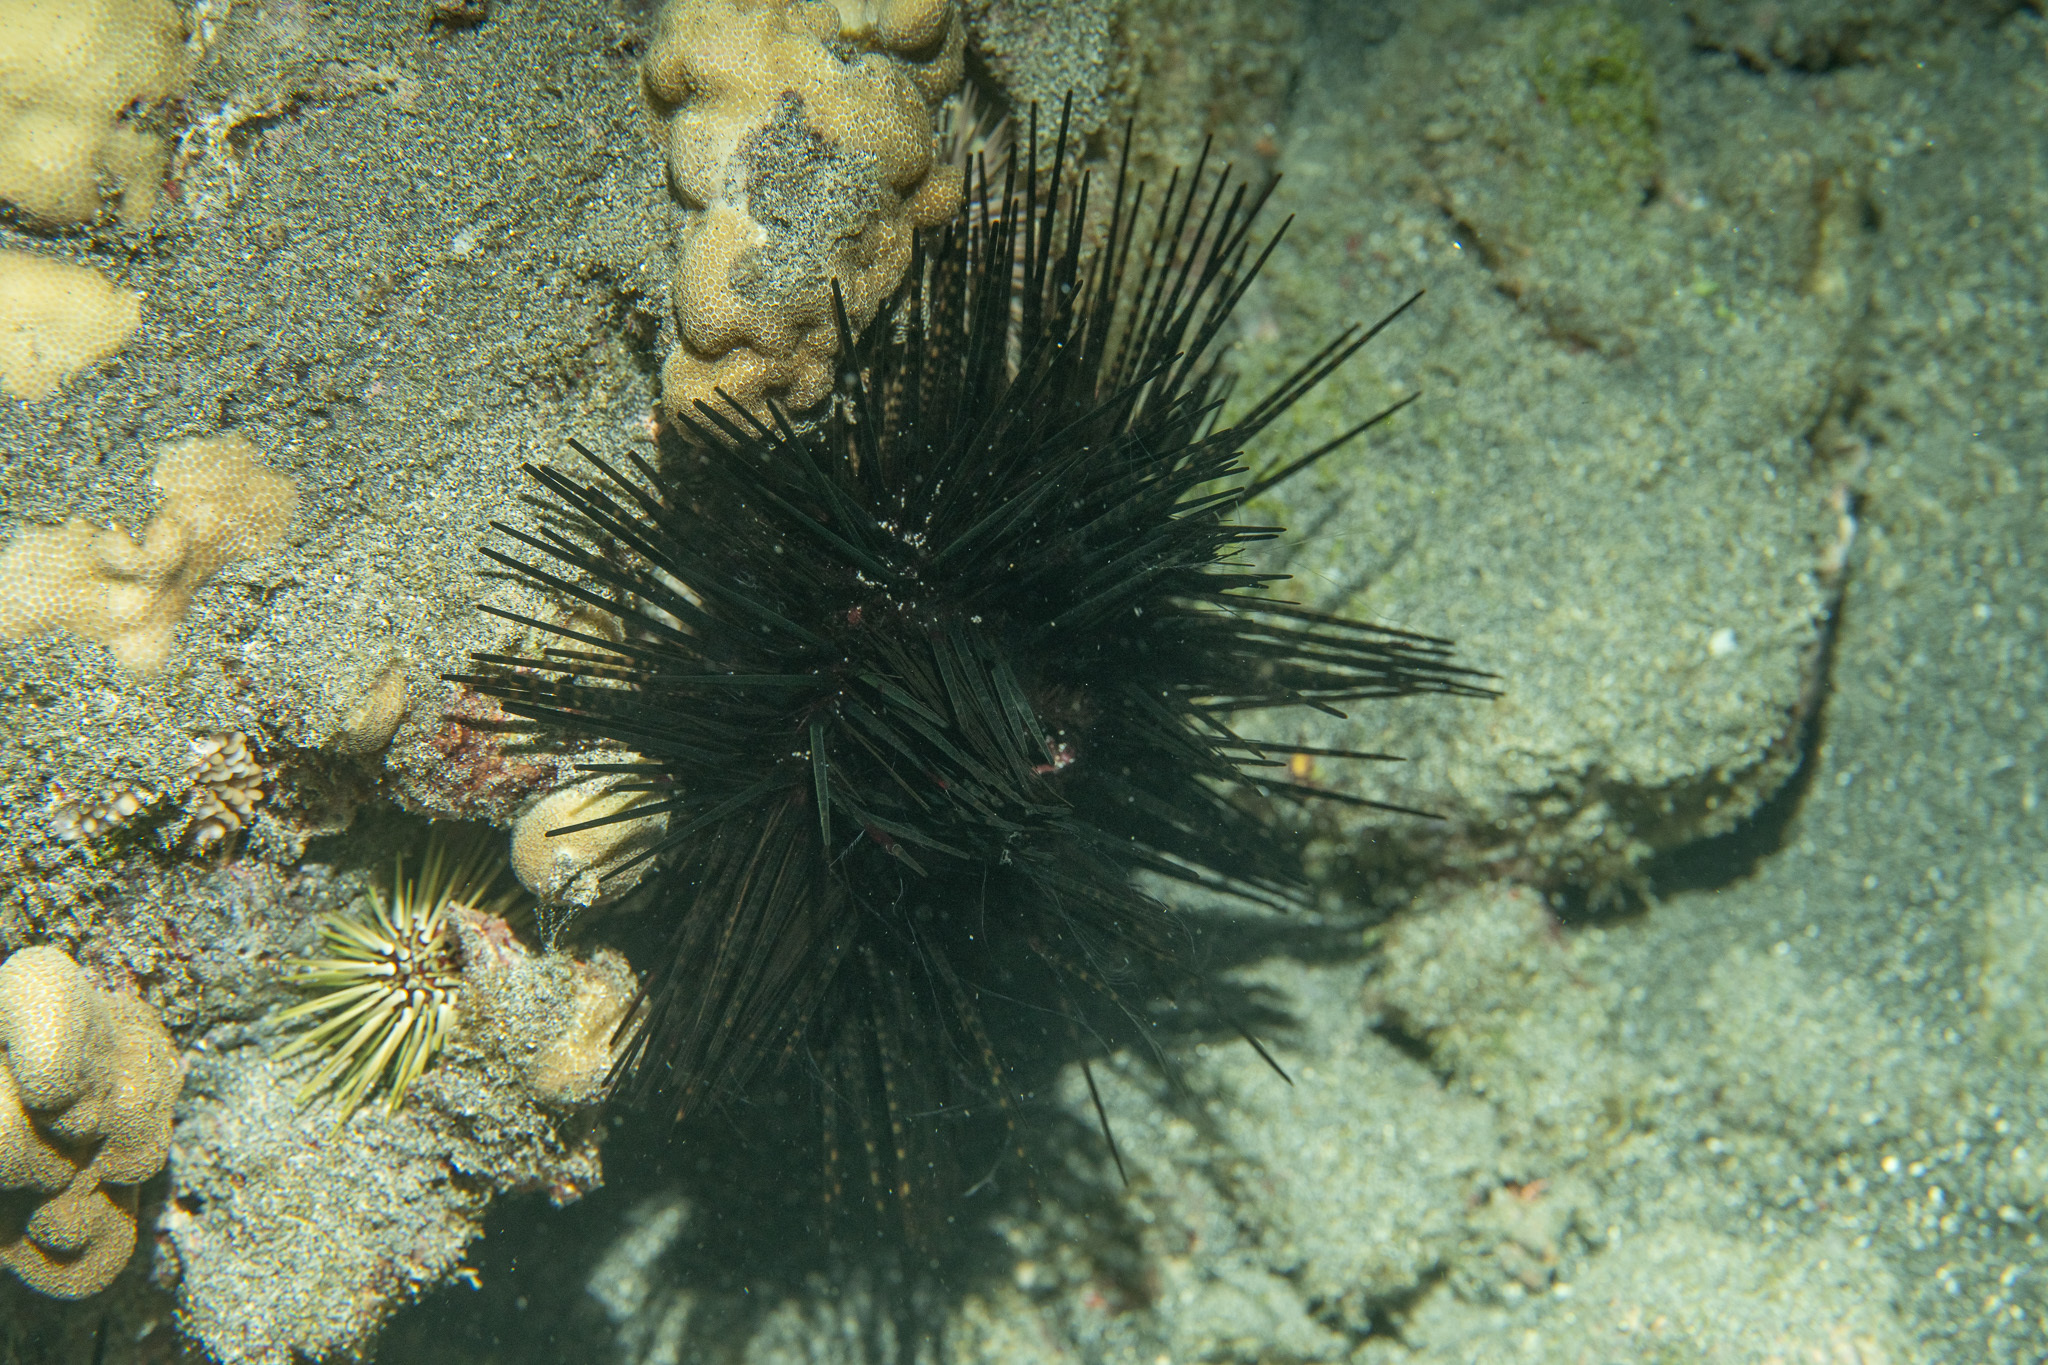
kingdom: Animalia
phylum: Echinodermata
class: Echinoidea
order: Diadematoida
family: Diadematidae
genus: Echinothrix
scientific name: Echinothrix calamaris
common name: Banded sea urchin
